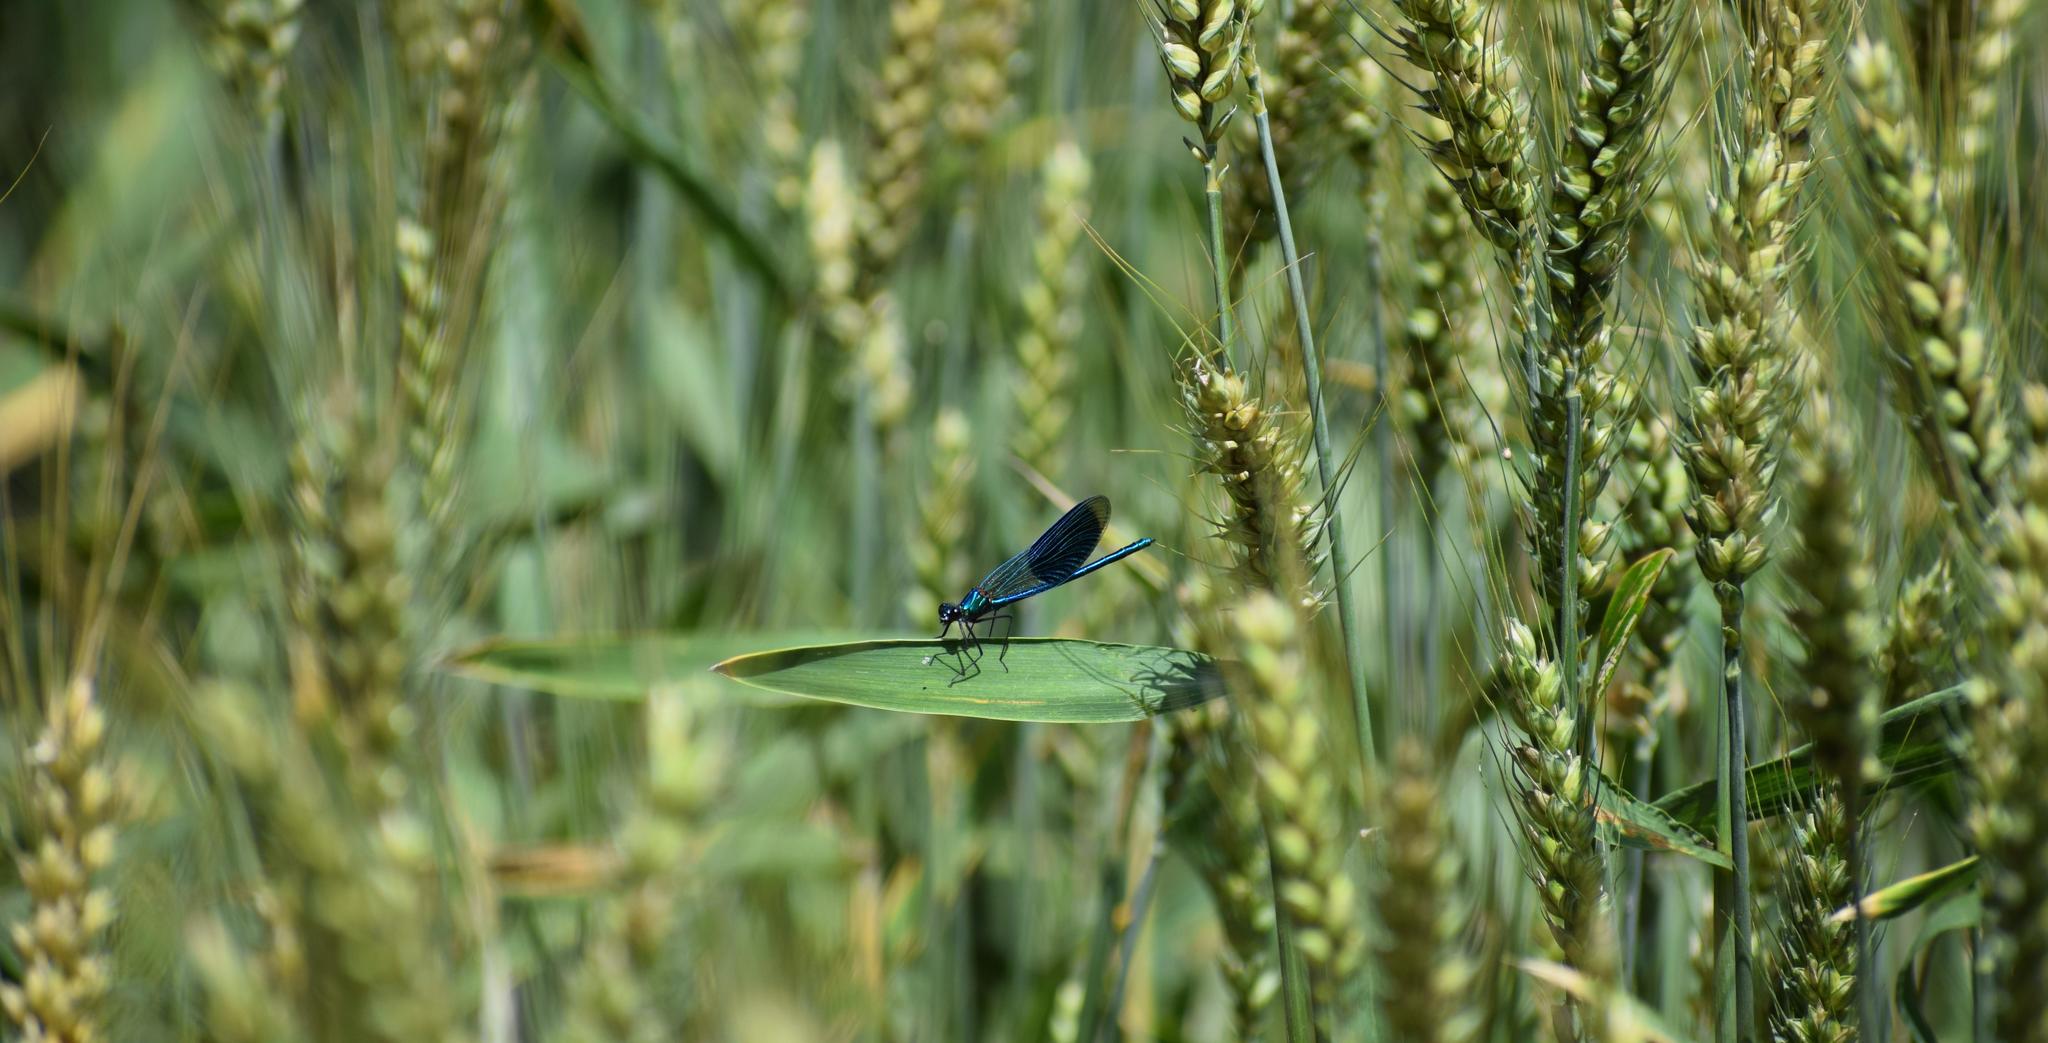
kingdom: Animalia
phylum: Arthropoda
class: Insecta
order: Odonata
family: Calopterygidae
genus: Calopteryx
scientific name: Calopteryx splendens
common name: Banded demoiselle
